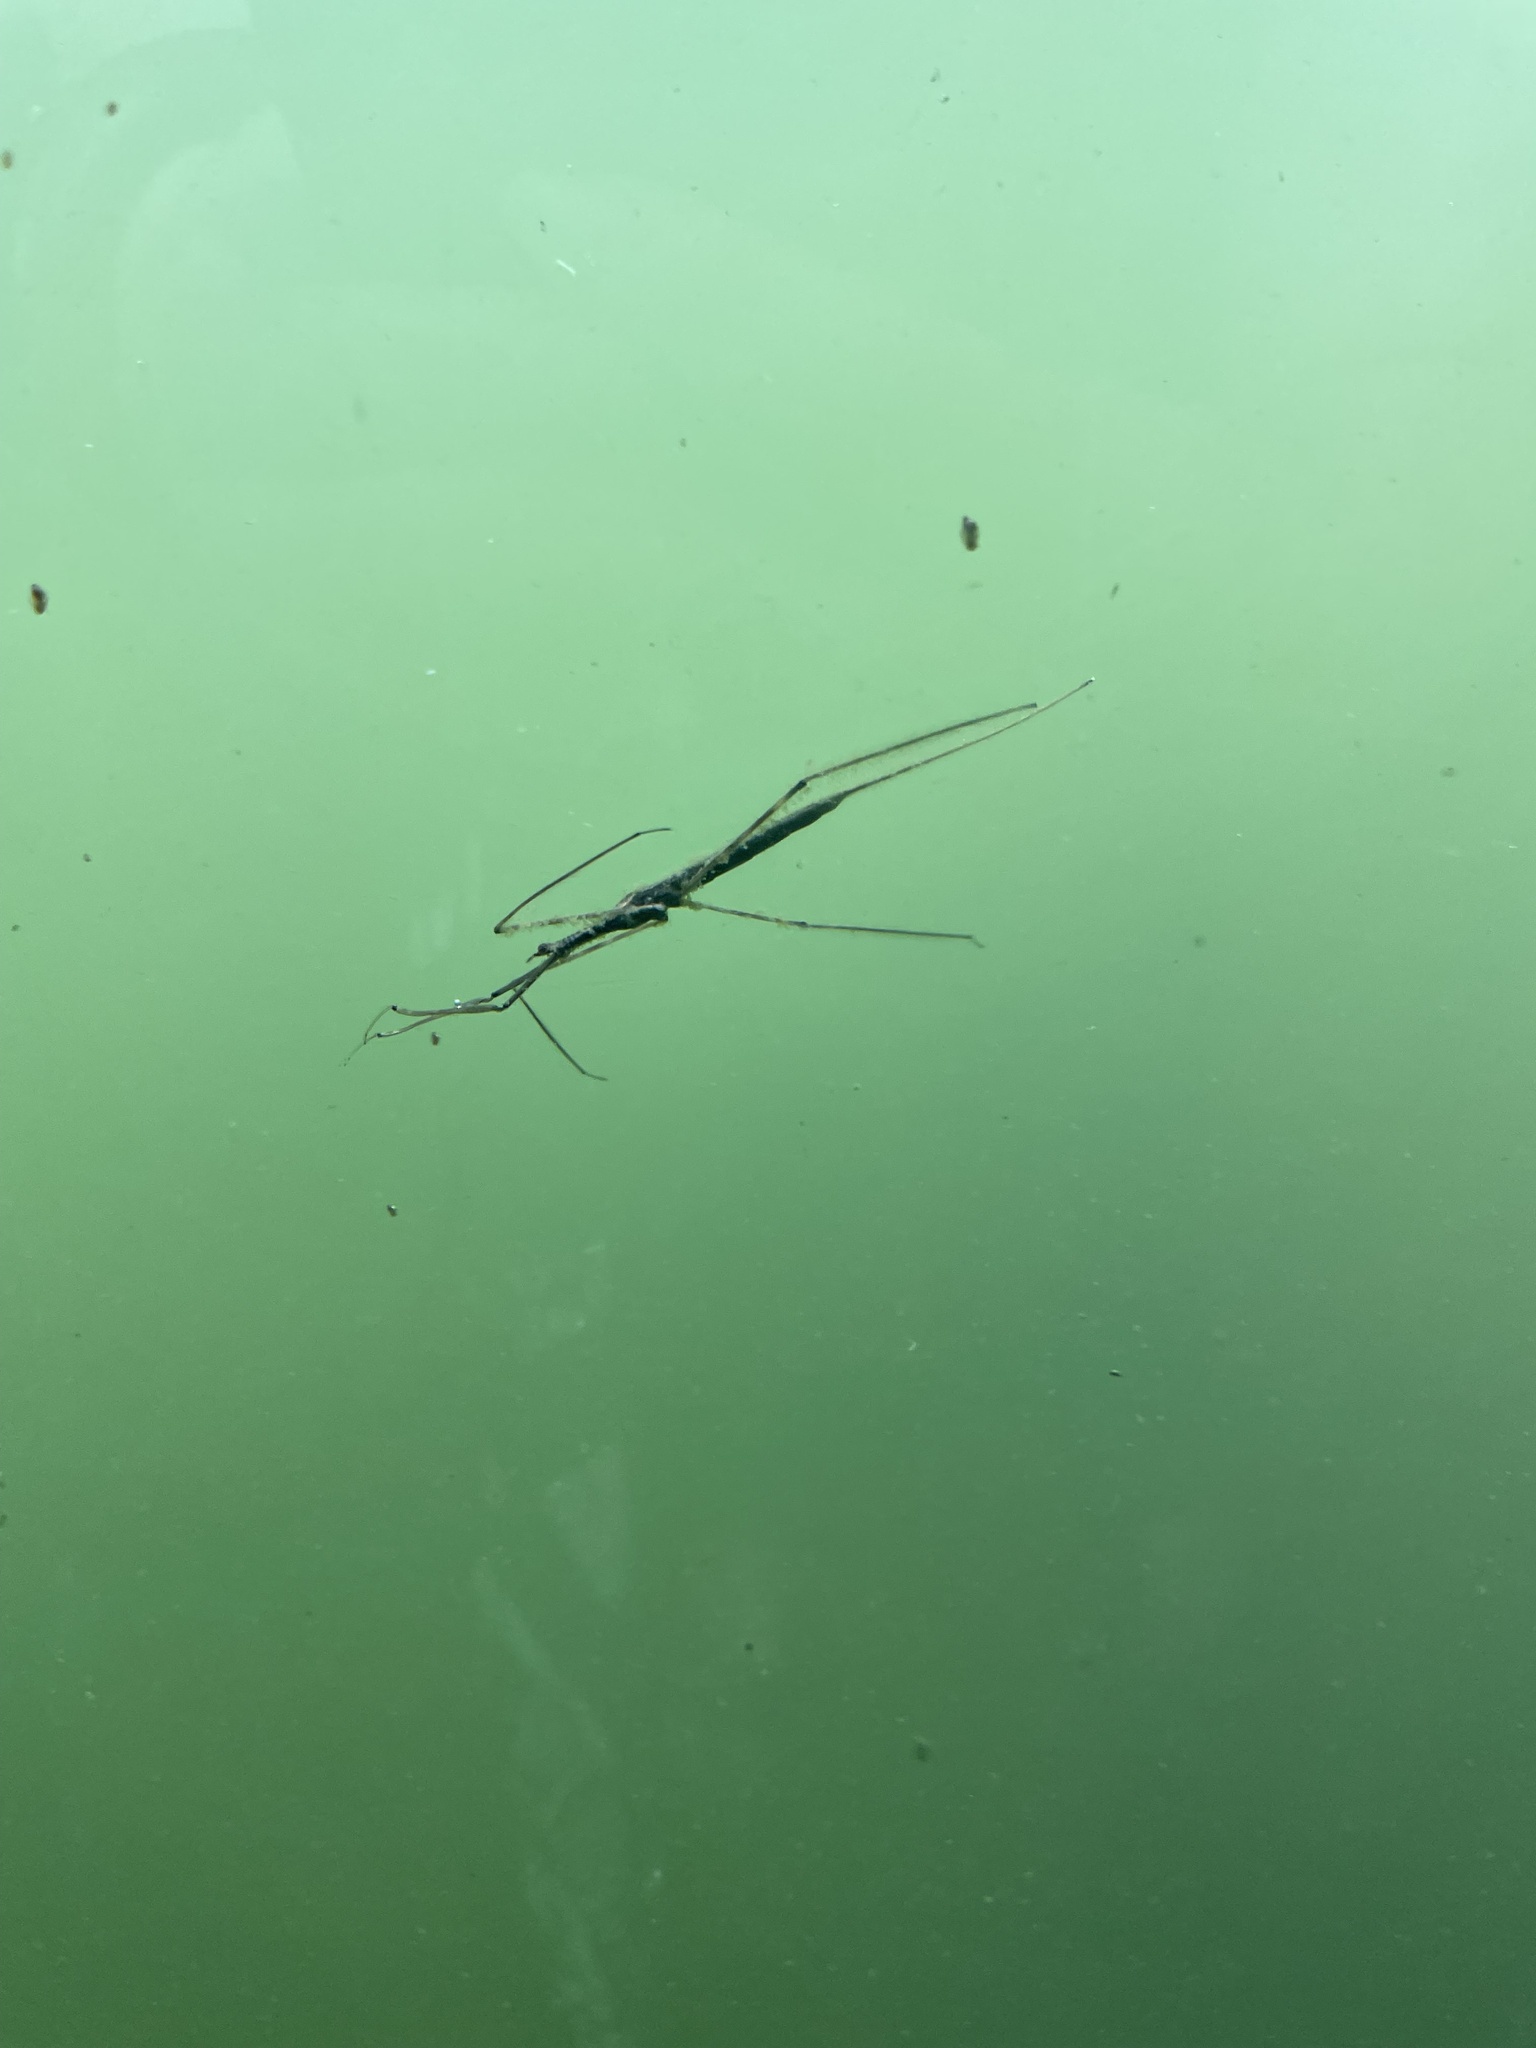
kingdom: Animalia
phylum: Arthropoda
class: Insecta
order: Hemiptera
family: Nepidae
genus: Ranatra
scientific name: Ranatra
